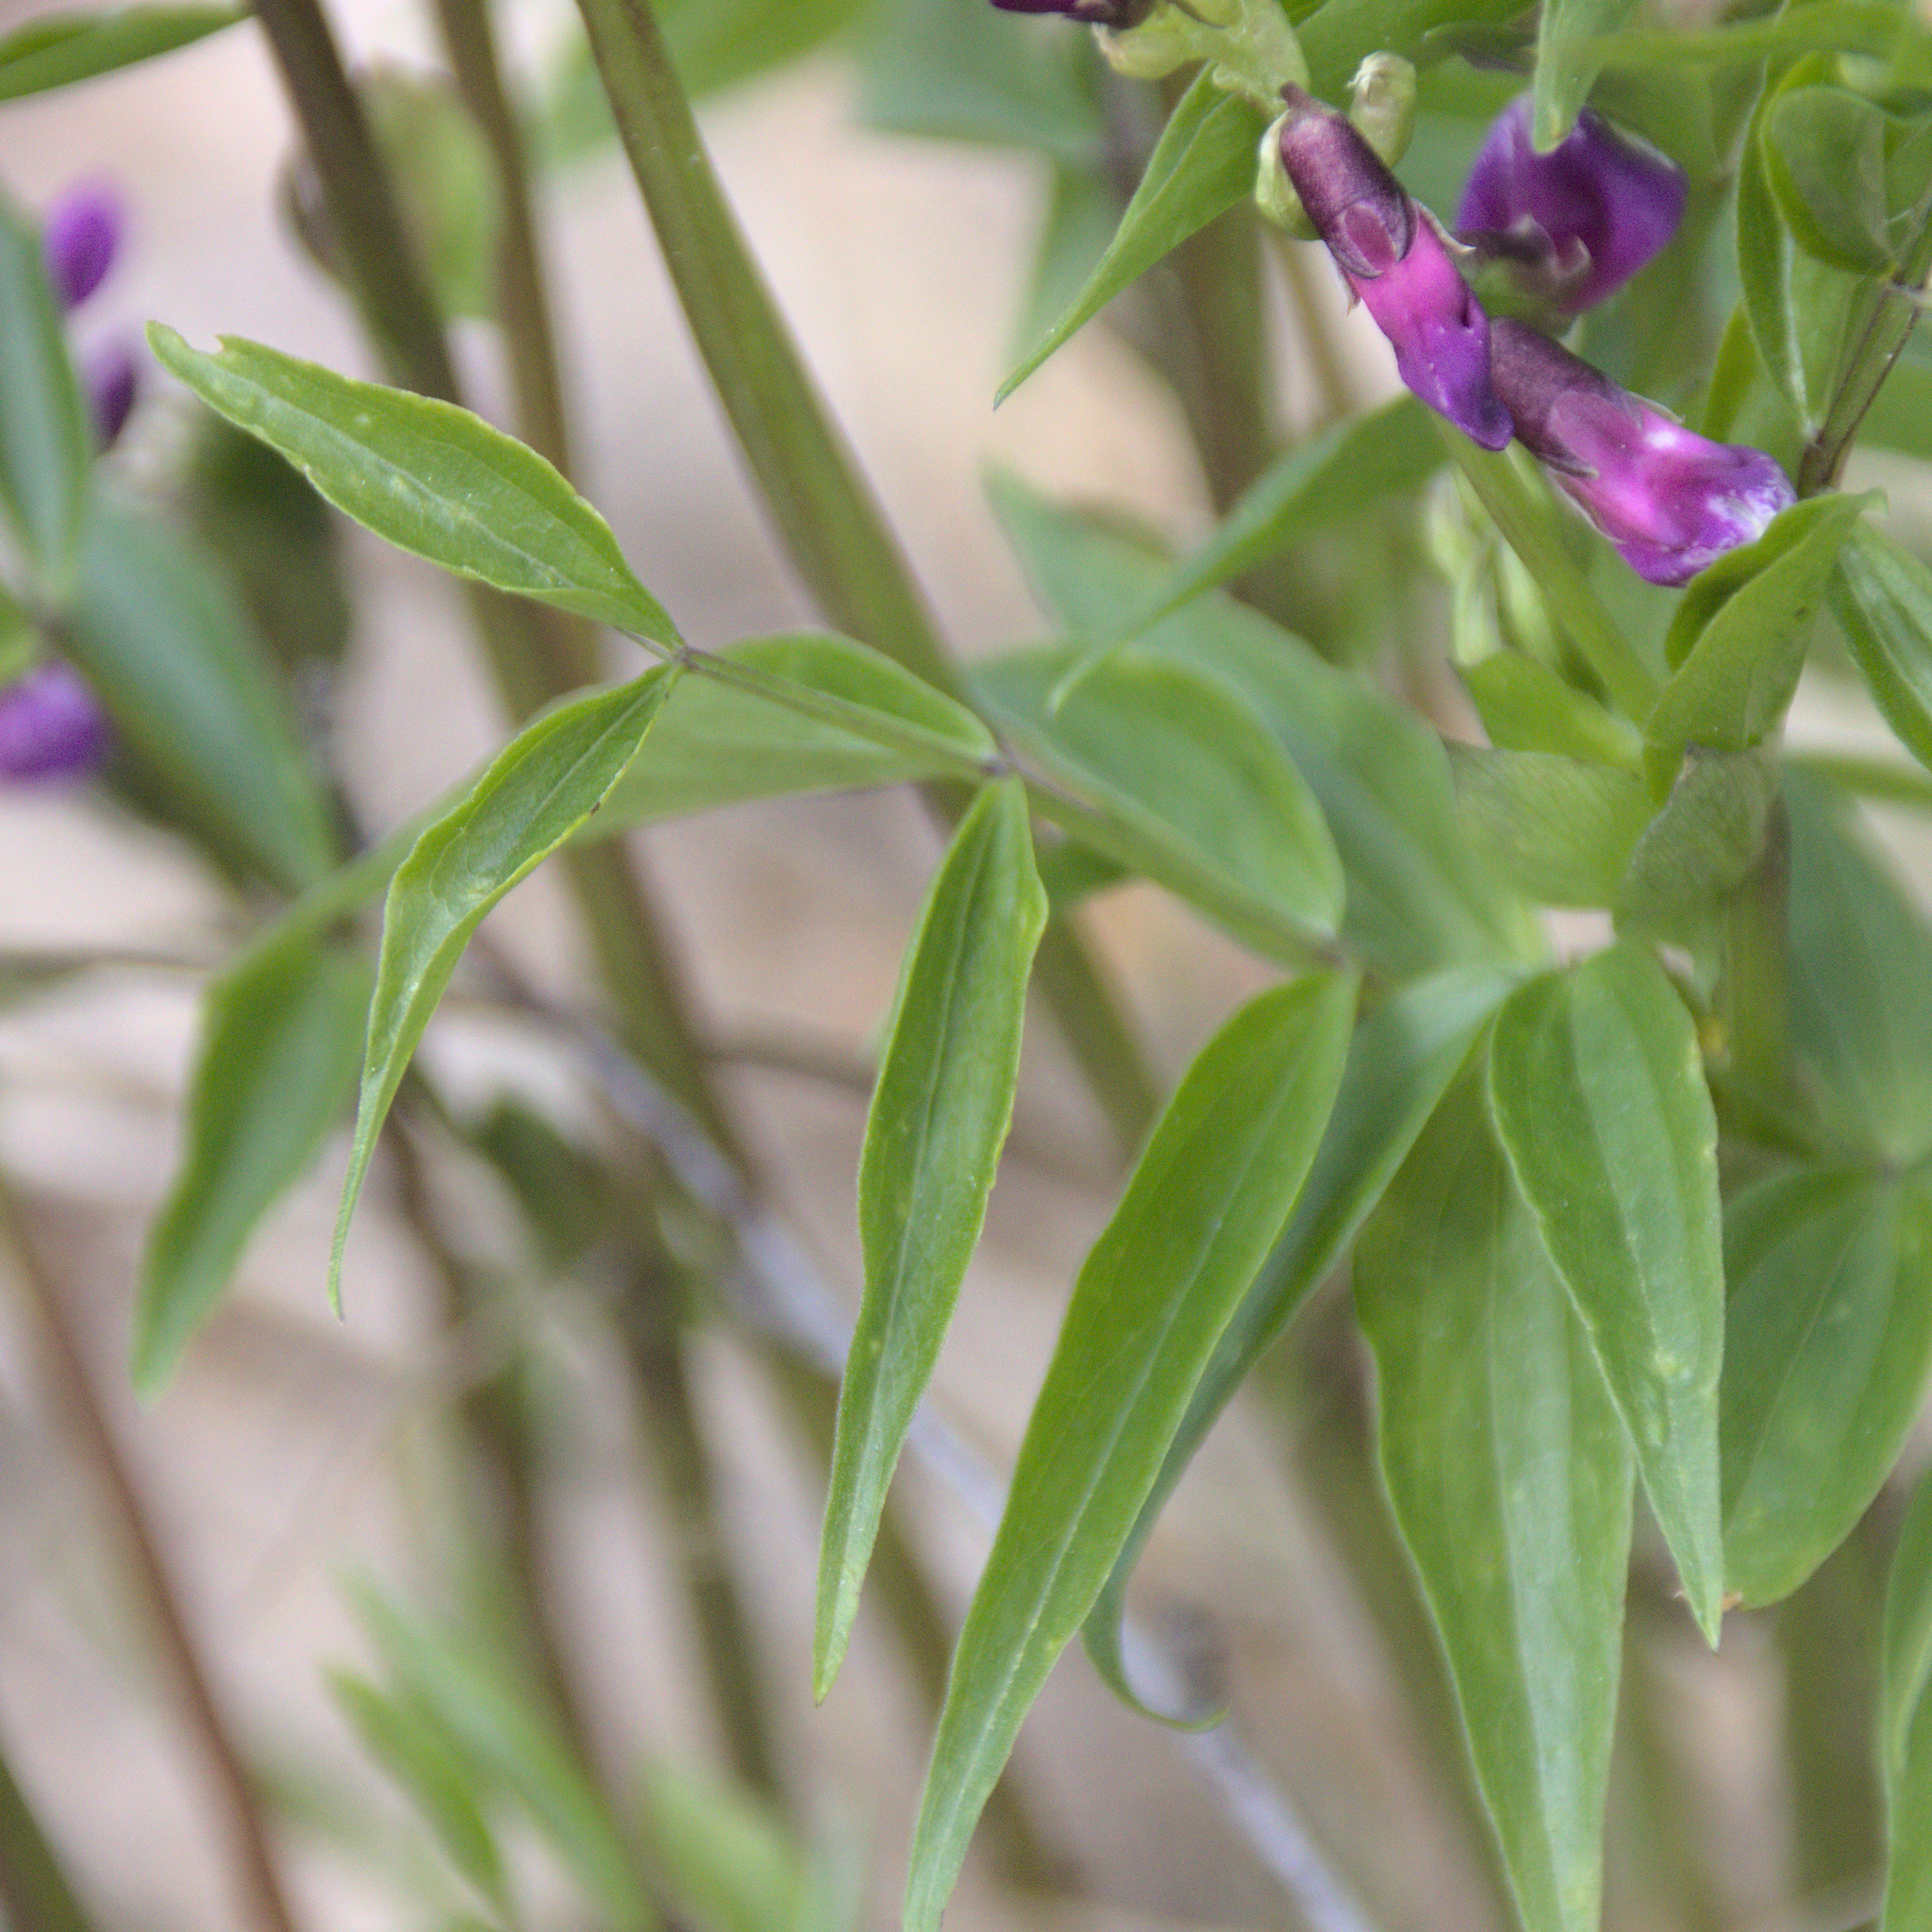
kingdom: Plantae
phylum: Tracheophyta
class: Magnoliopsida
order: Fabales
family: Fabaceae
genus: Lathyrus
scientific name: Lathyrus vernus
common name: Spring pea
